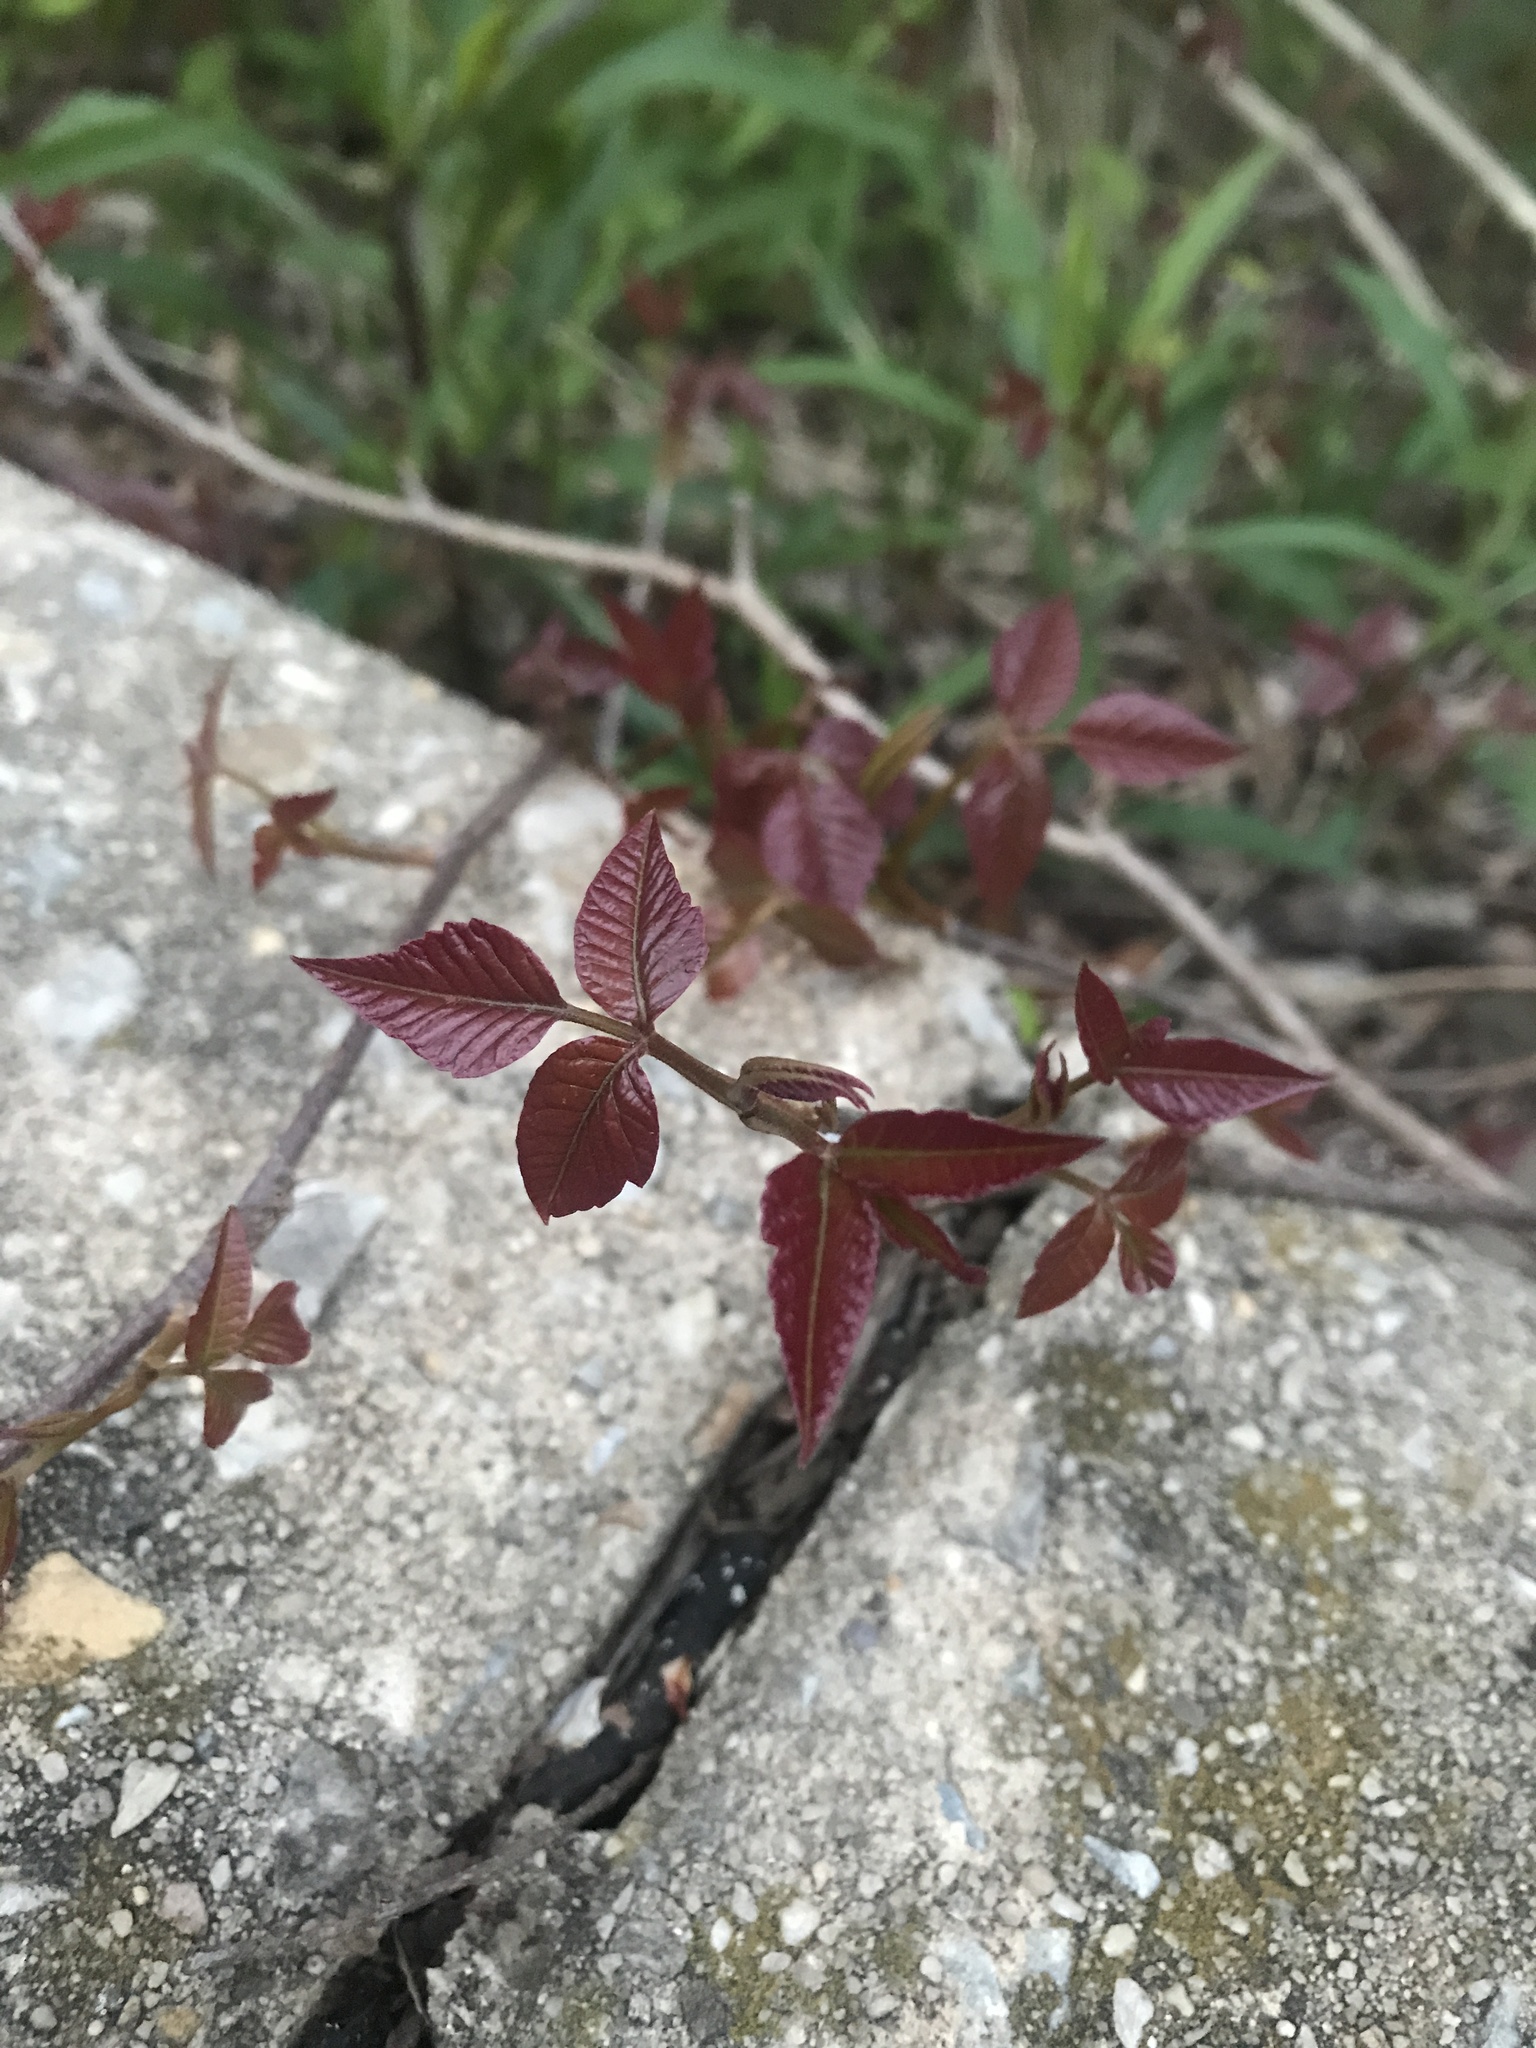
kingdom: Plantae
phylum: Tracheophyta
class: Magnoliopsida
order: Sapindales
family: Anacardiaceae
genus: Toxicodendron
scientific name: Toxicodendron radicans
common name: Poison ivy
